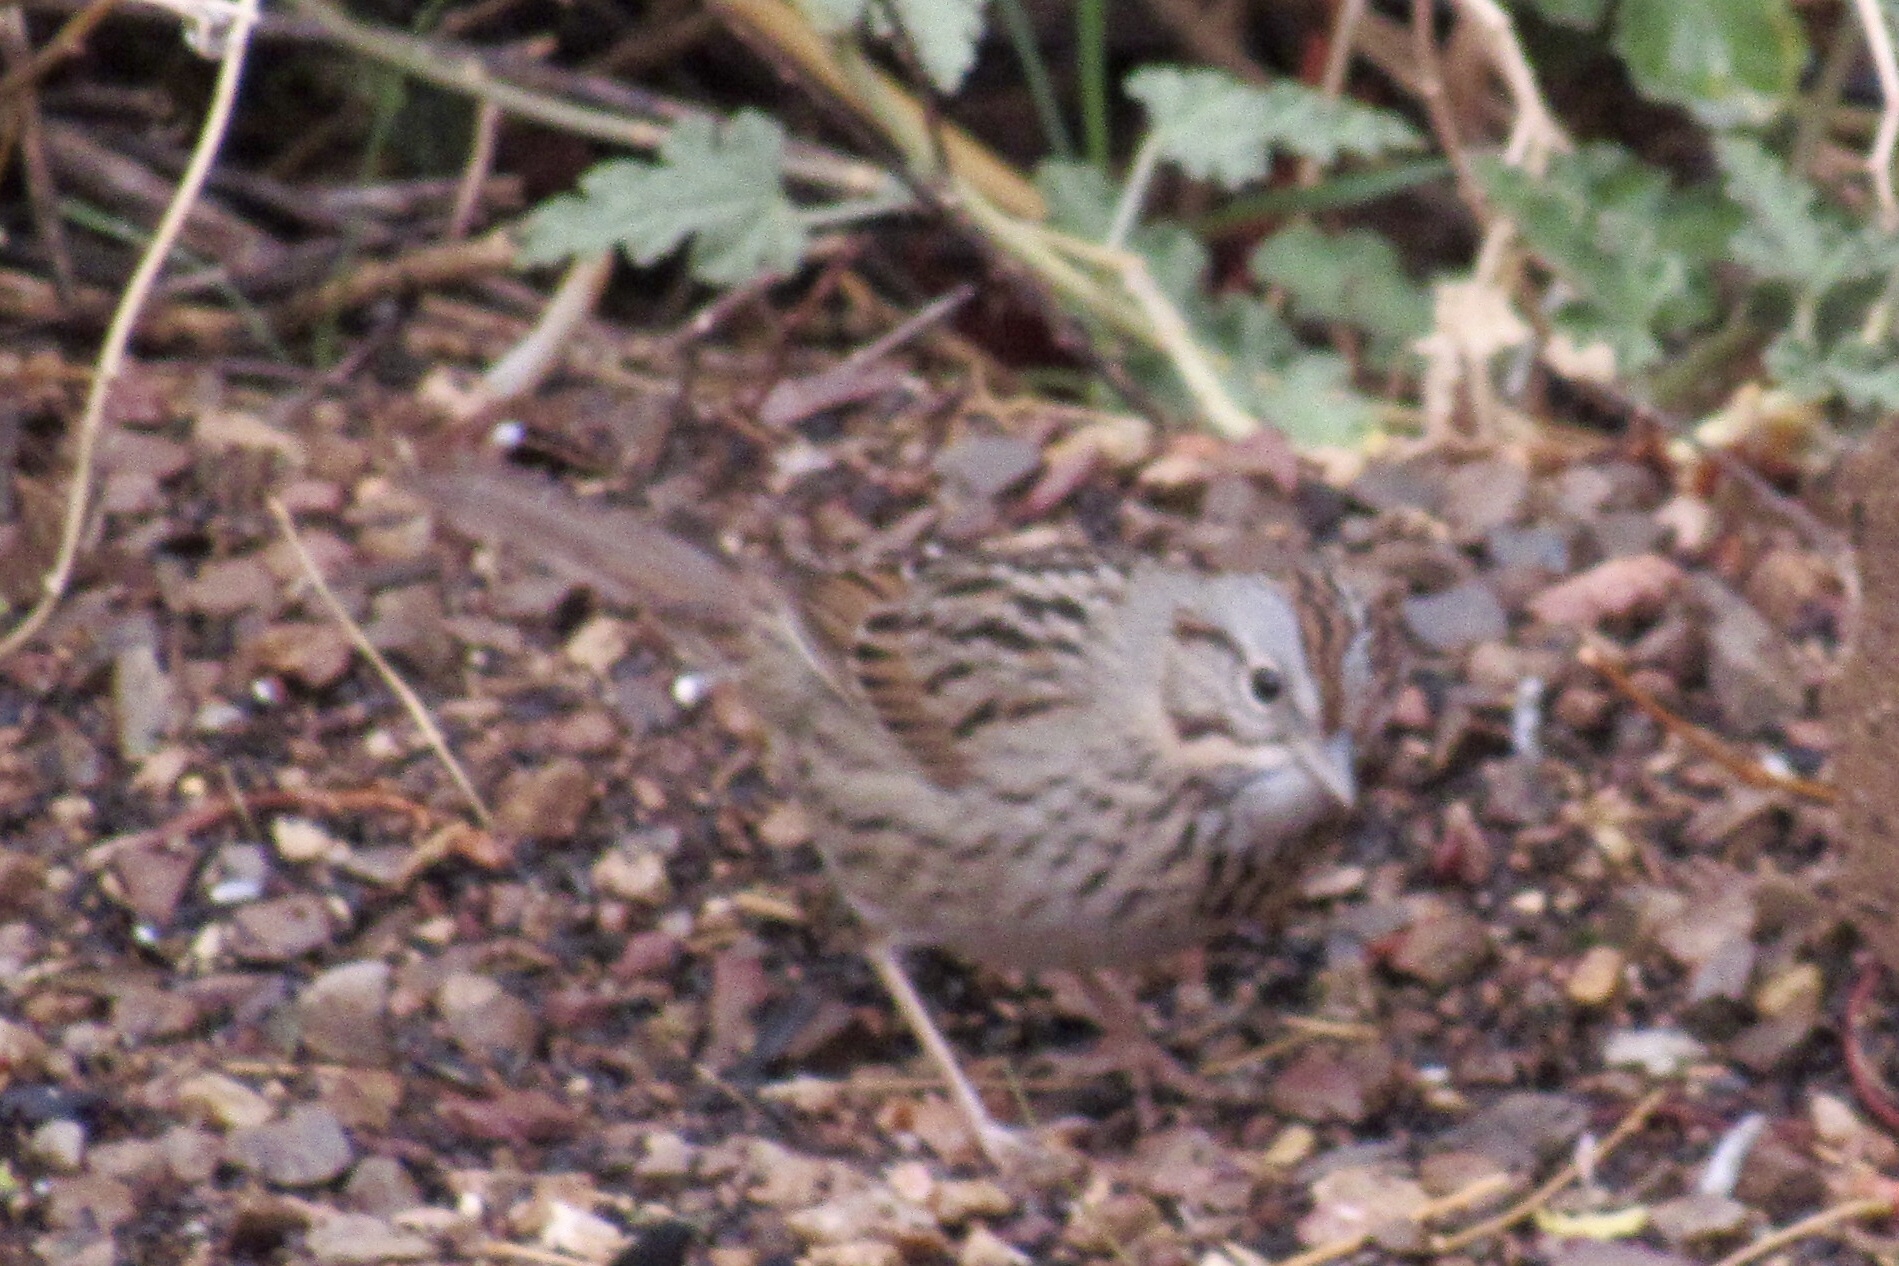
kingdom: Animalia
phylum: Chordata
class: Aves
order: Passeriformes
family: Passerellidae
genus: Melospiza
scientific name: Melospiza lincolnii
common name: Lincoln's sparrow
